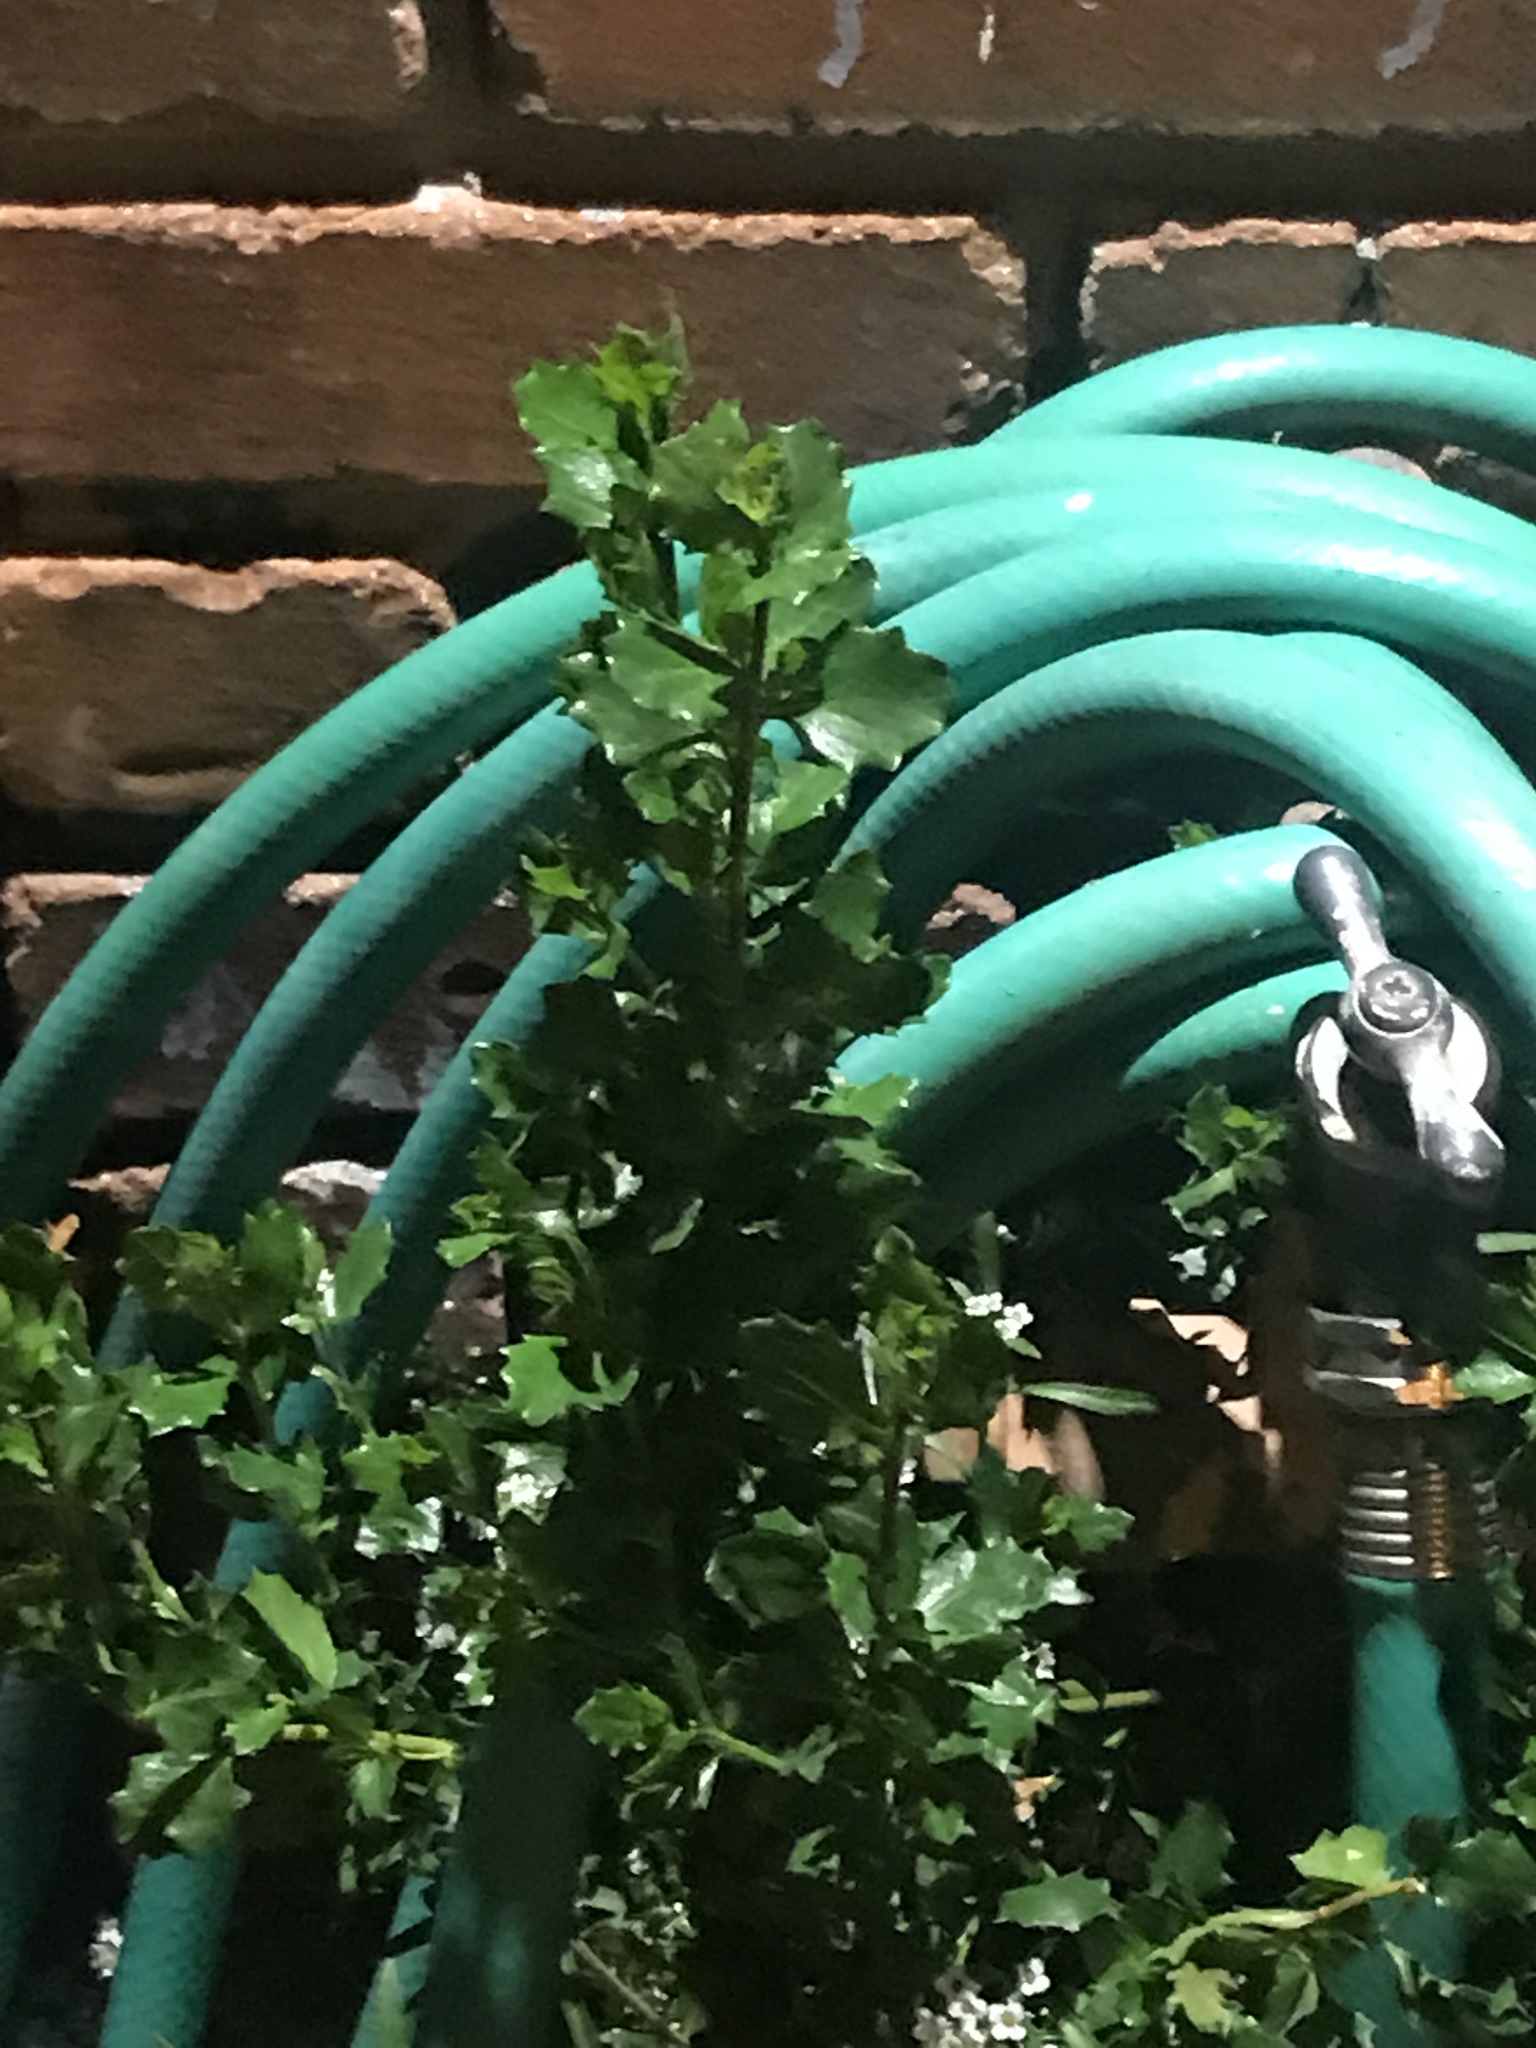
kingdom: Plantae
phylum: Tracheophyta
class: Magnoliopsida
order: Asterales
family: Asteraceae
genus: Baccharis
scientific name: Baccharis pilularis
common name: Coyotebrush
